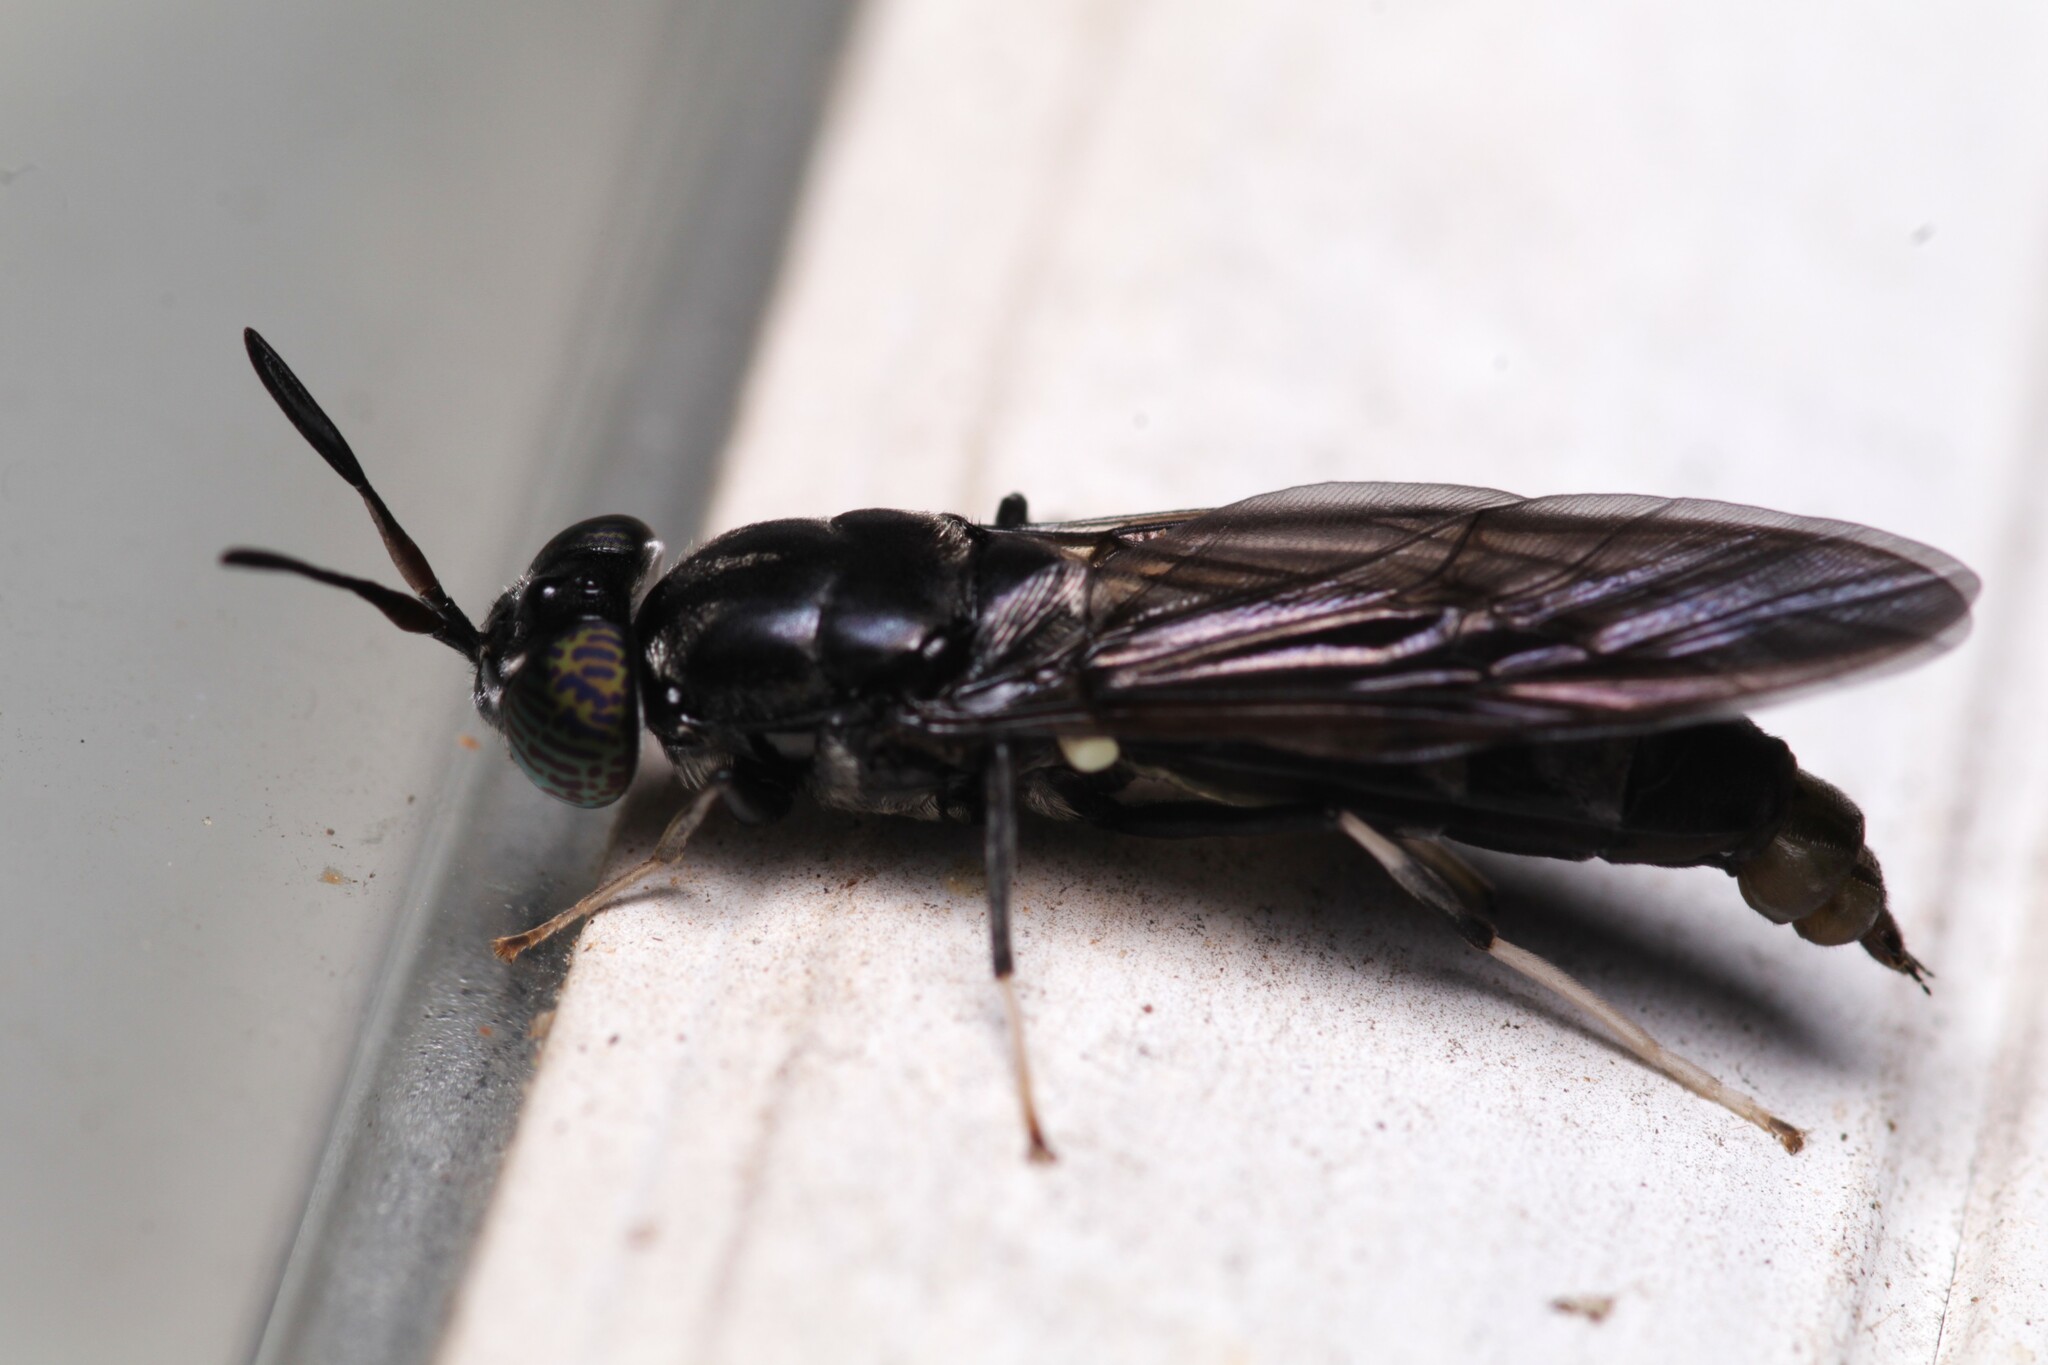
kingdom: Animalia
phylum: Arthropoda
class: Insecta
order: Diptera
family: Stratiomyidae
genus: Hermetia
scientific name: Hermetia illucens
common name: Black soldier fly
